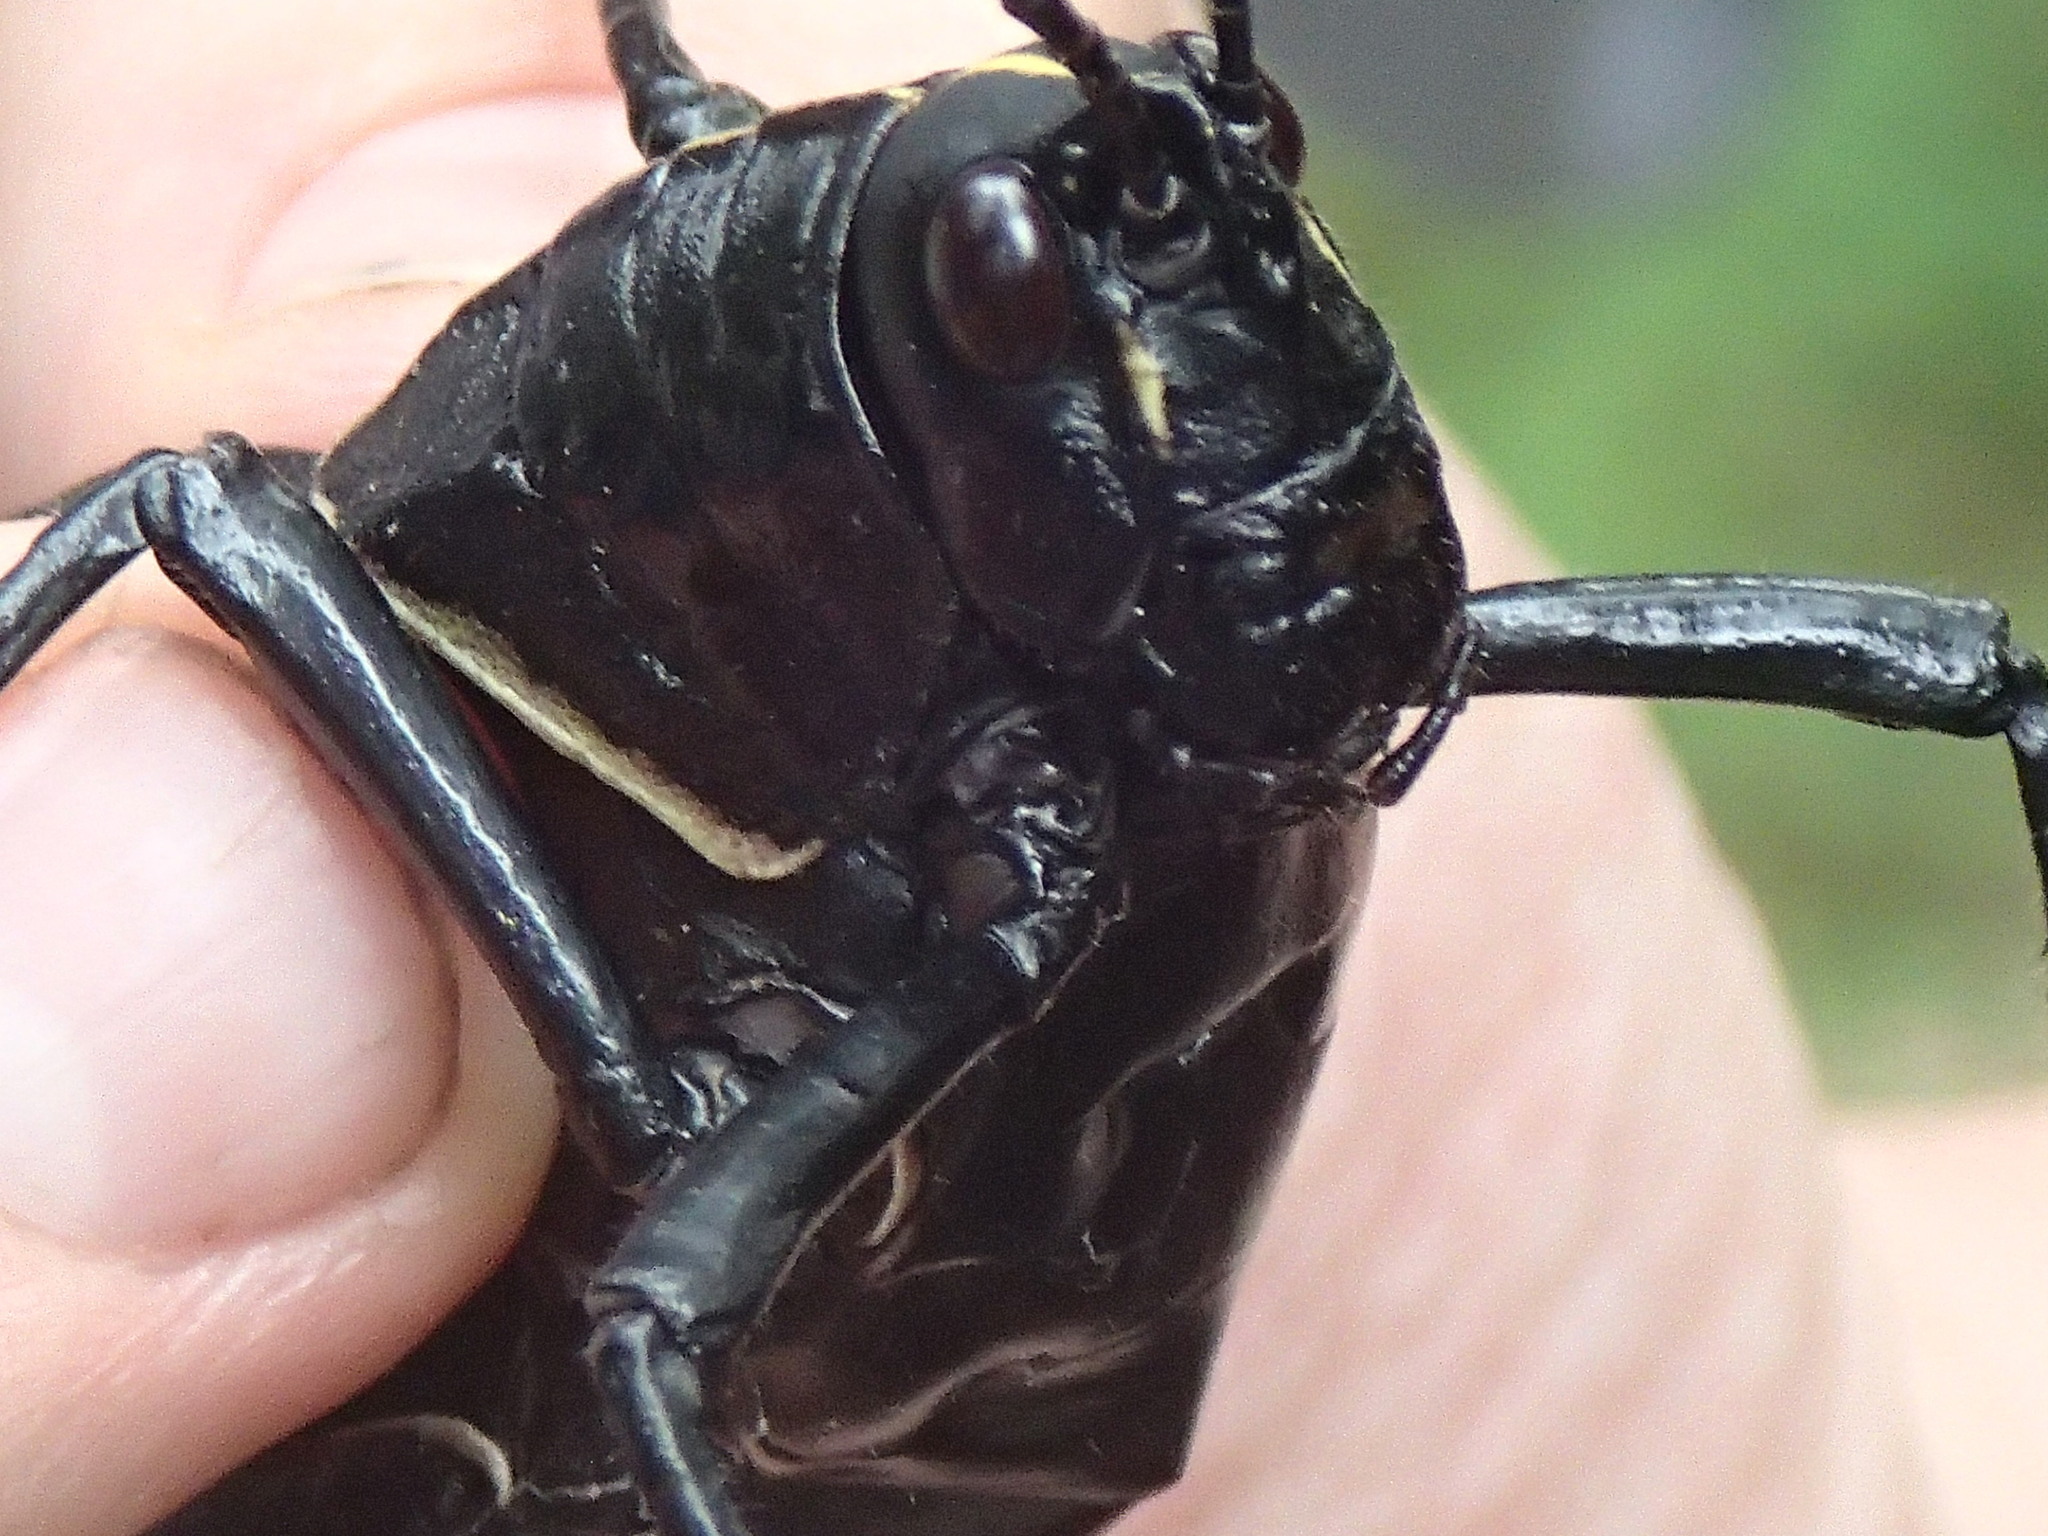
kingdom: Animalia
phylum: Arthropoda
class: Insecta
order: Orthoptera
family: Romaleidae
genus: Romalea
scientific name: Romalea microptera
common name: Eastern lubber grasshopper
